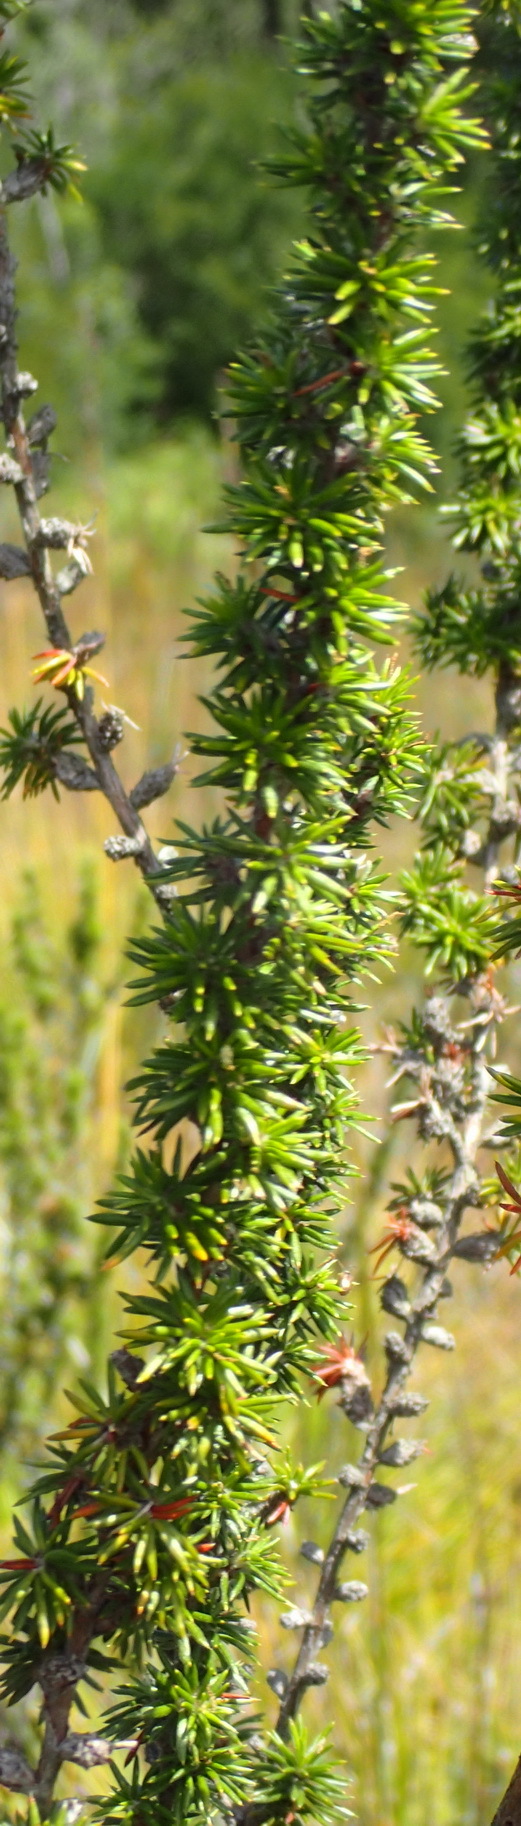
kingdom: Plantae
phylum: Tracheophyta
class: Magnoliopsida
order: Rosales
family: Rosaceae
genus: Cliffortia
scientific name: Cliffortia stricta
